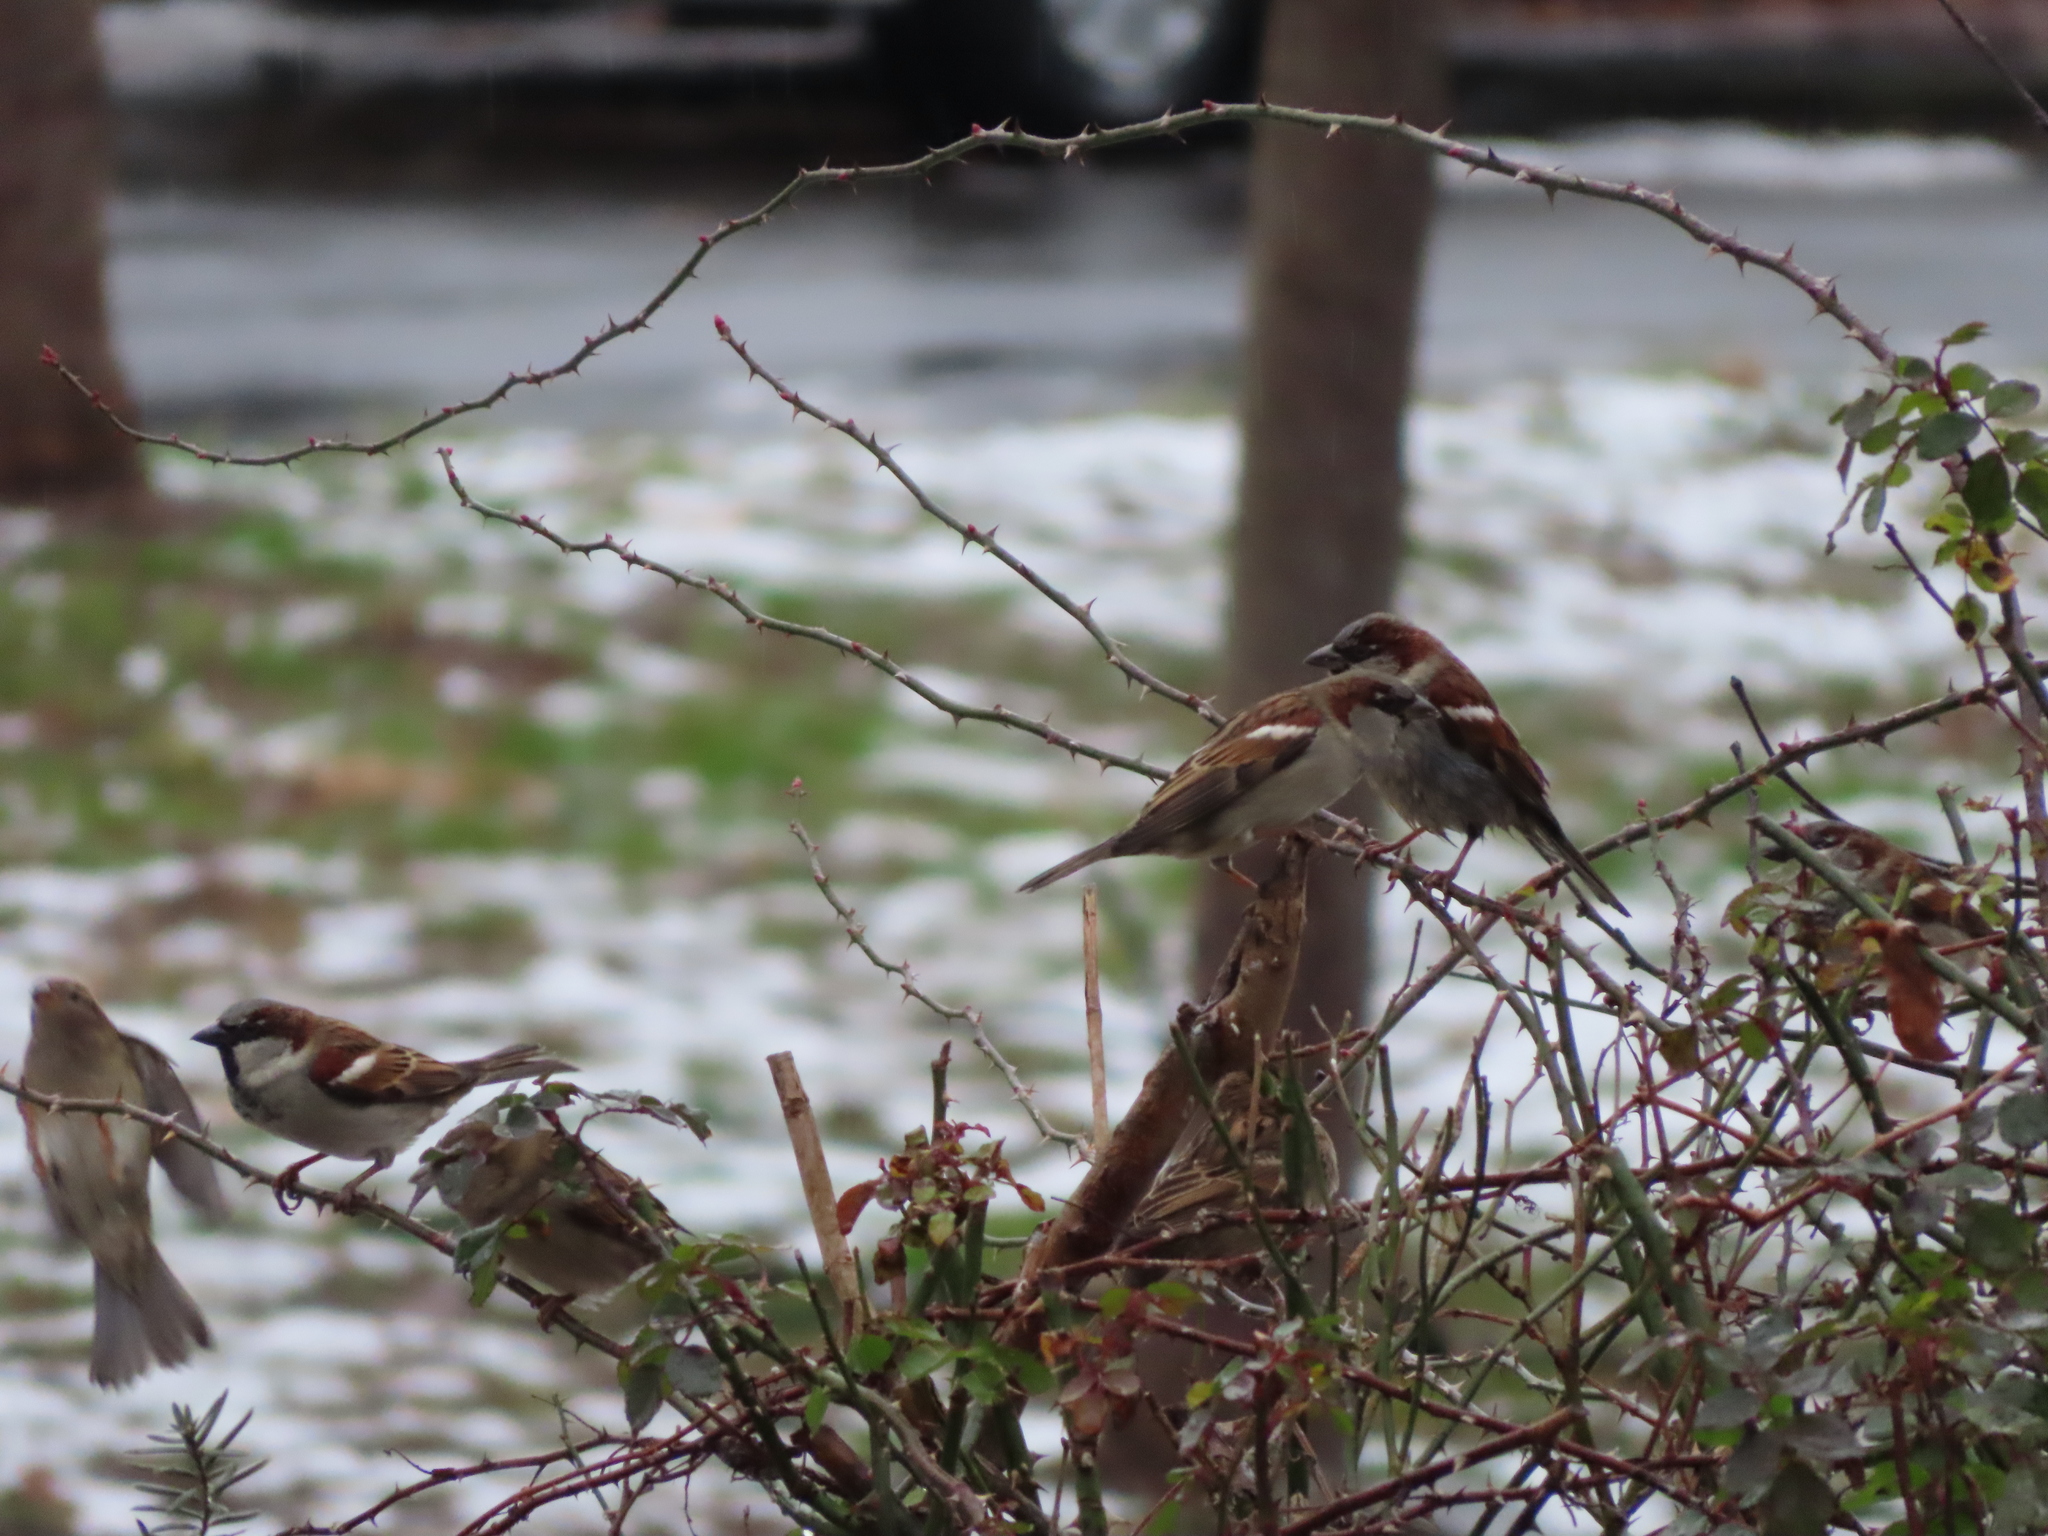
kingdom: Animalia
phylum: Chordata
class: Aves
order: Passeriformes
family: Passeridae
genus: Passer
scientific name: Passer domesticus
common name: House sparrow
